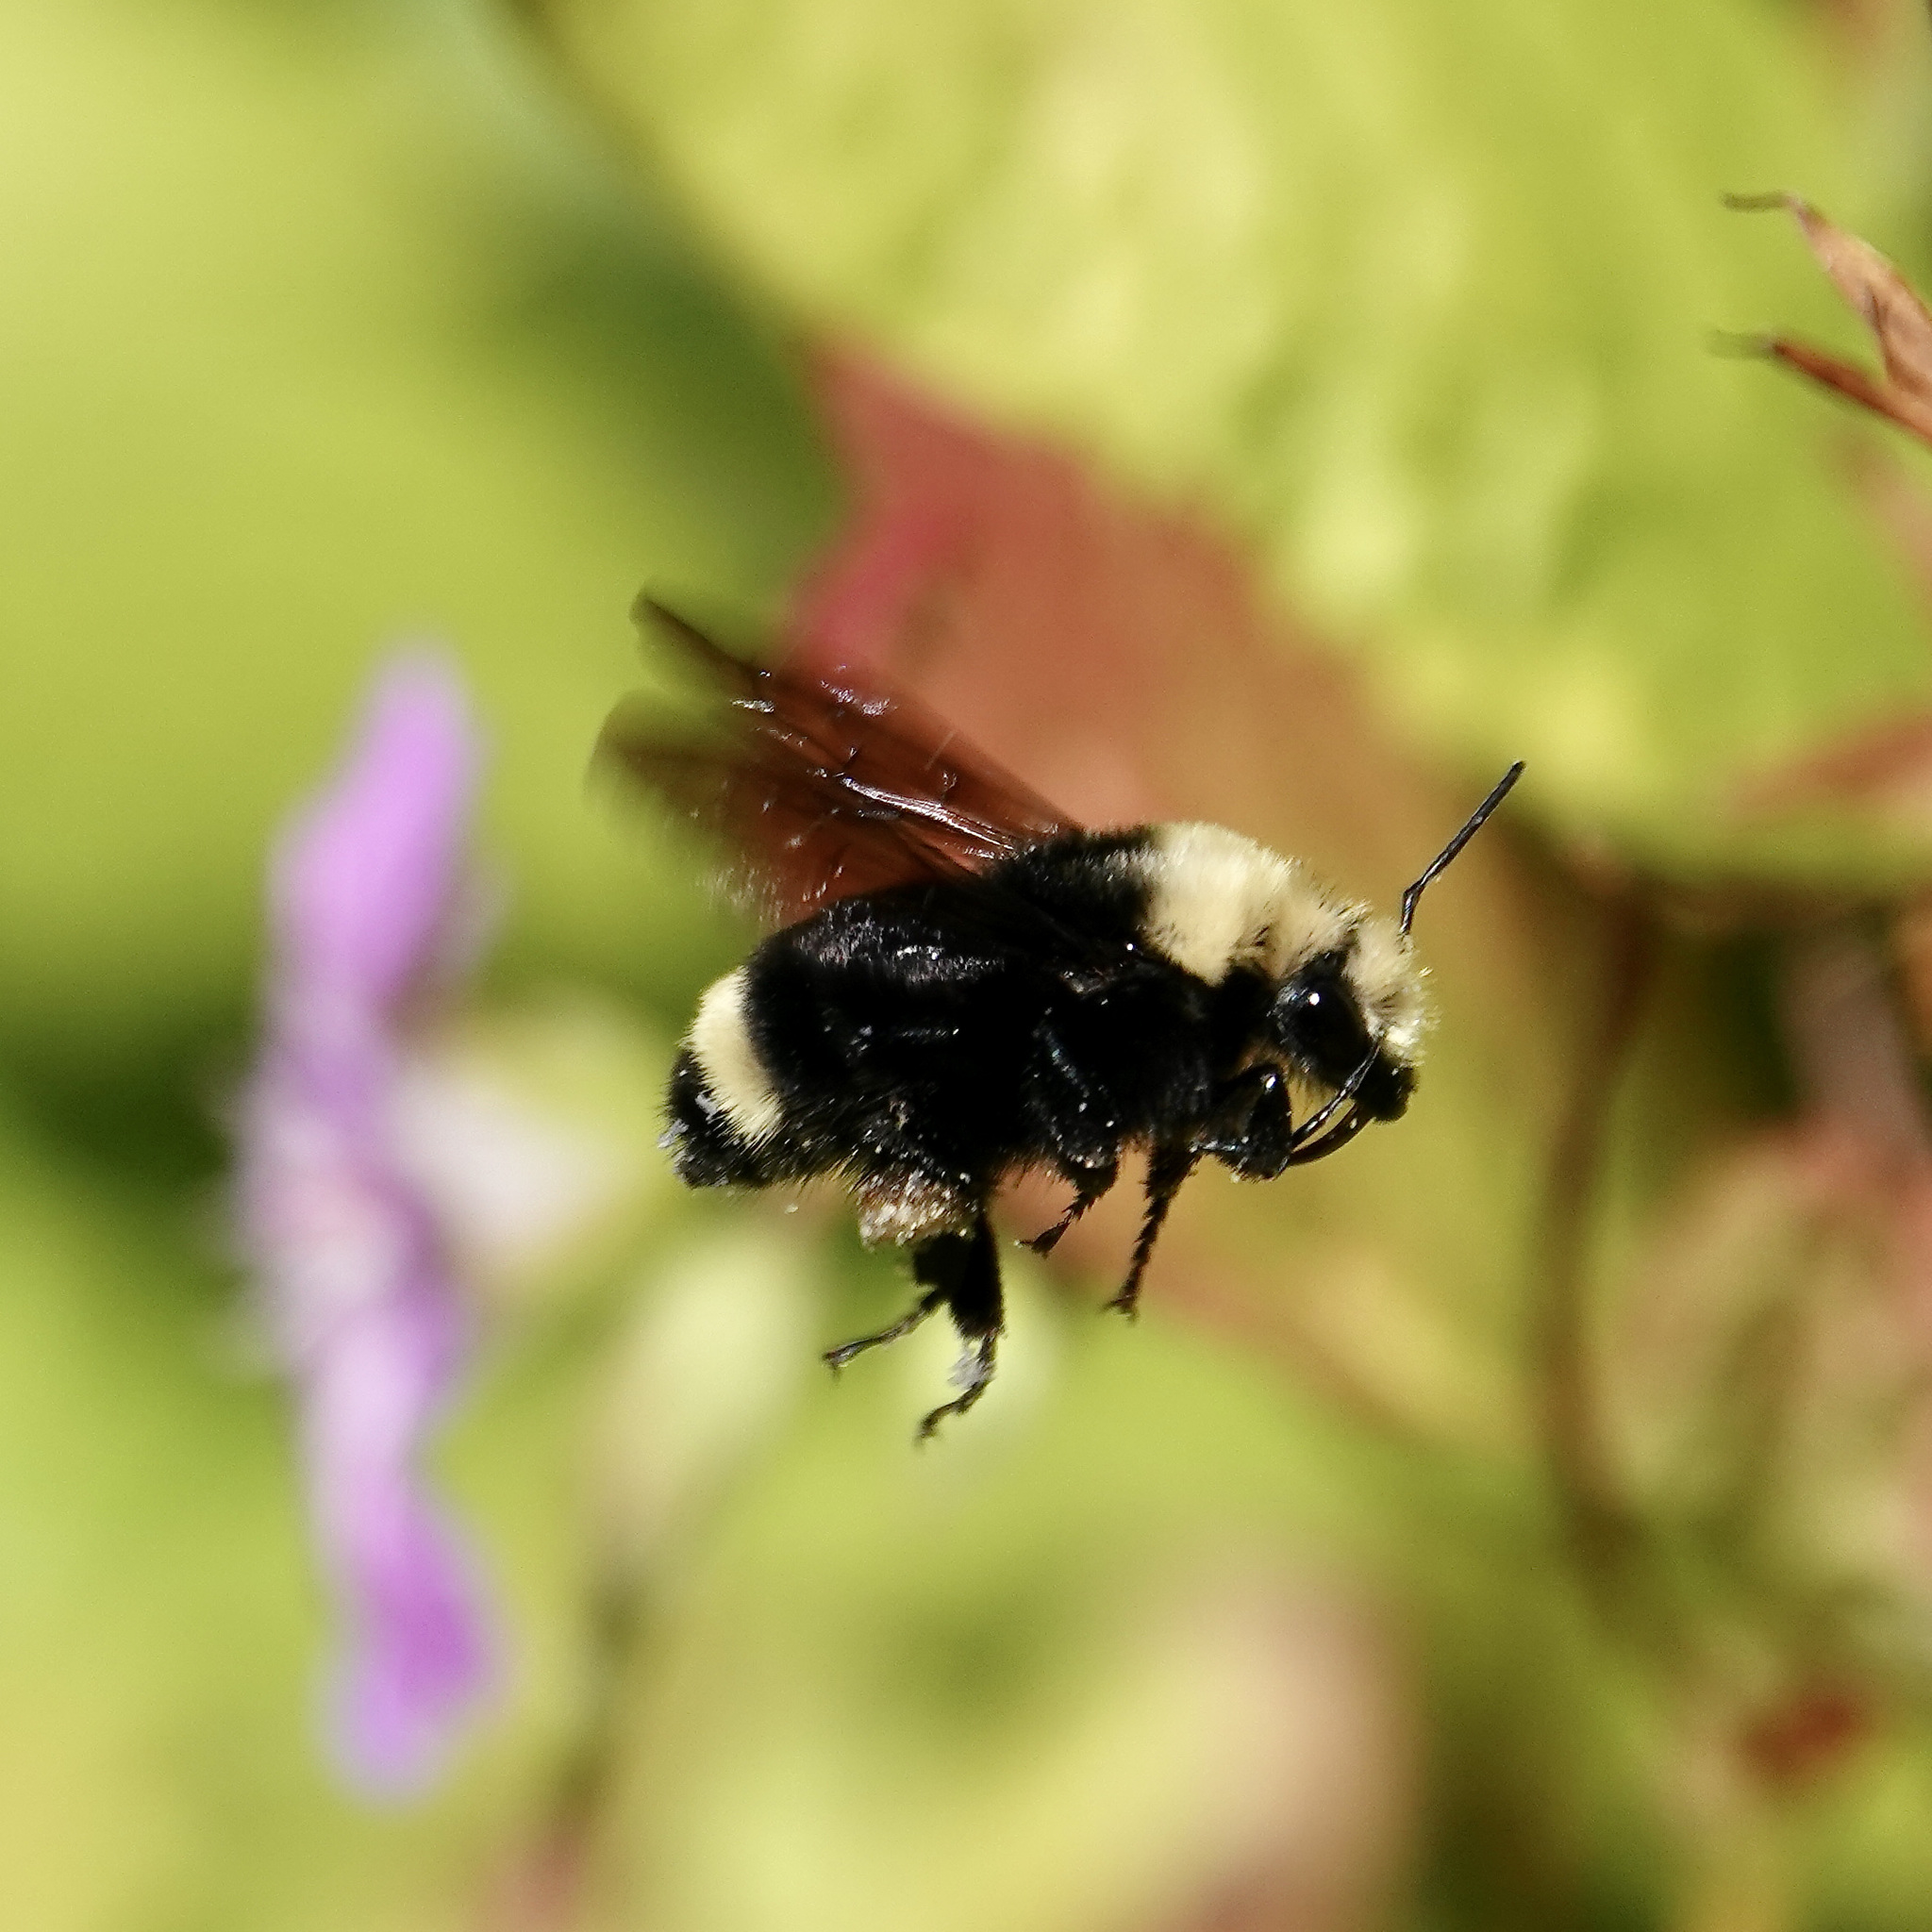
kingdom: Animalia
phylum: Arthropoda
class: Insecta
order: Hymenoptera
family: Apidae
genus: Bombus
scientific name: Bombus vosnesenskii
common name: Vosnesensky bumble bee
